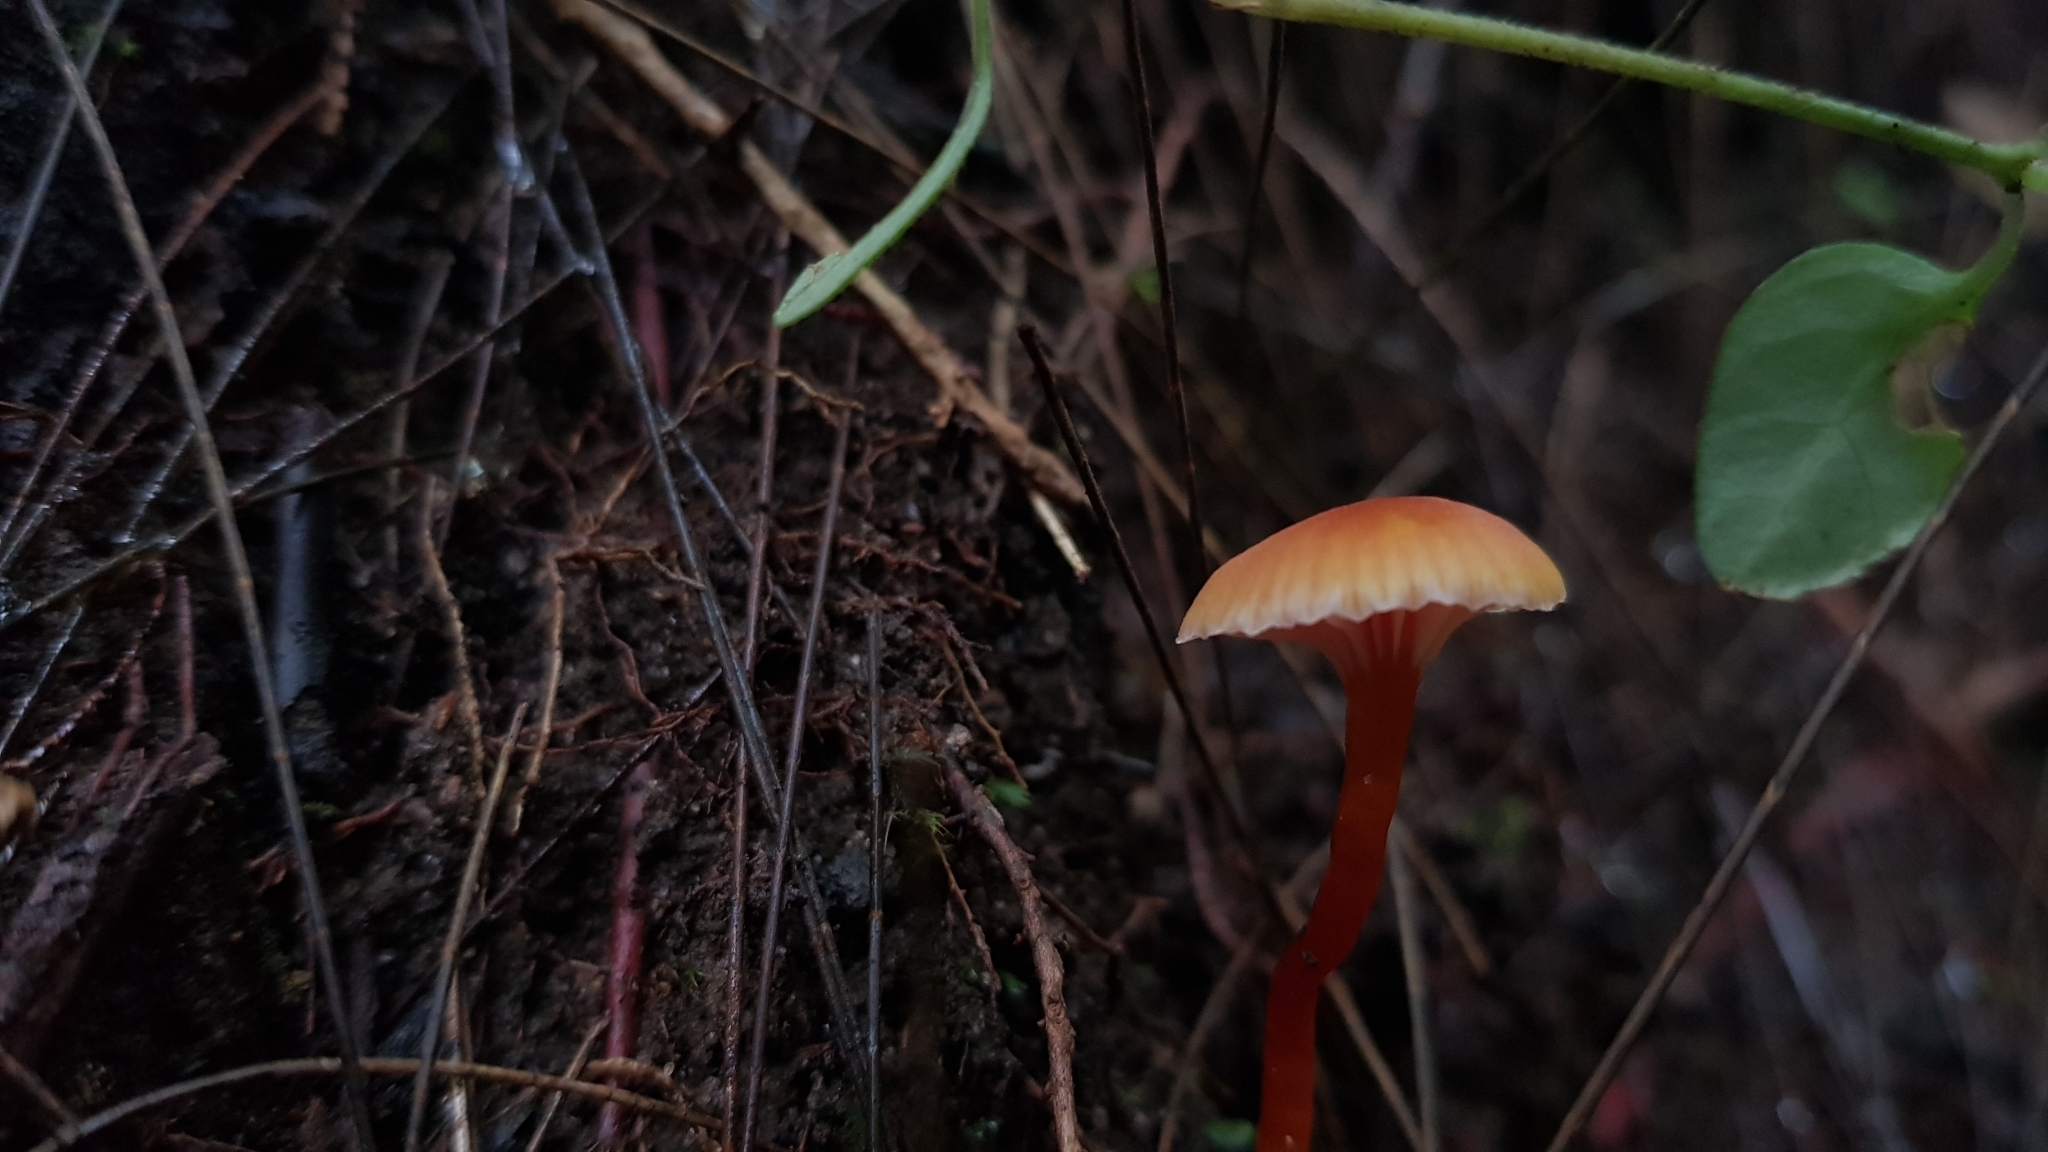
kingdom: Fungi
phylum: Basidiomycota
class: Agaricomycetes
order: Agaricales
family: Hygrophoraceae
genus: Hygrocybe
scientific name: Hygrocybe anomala
